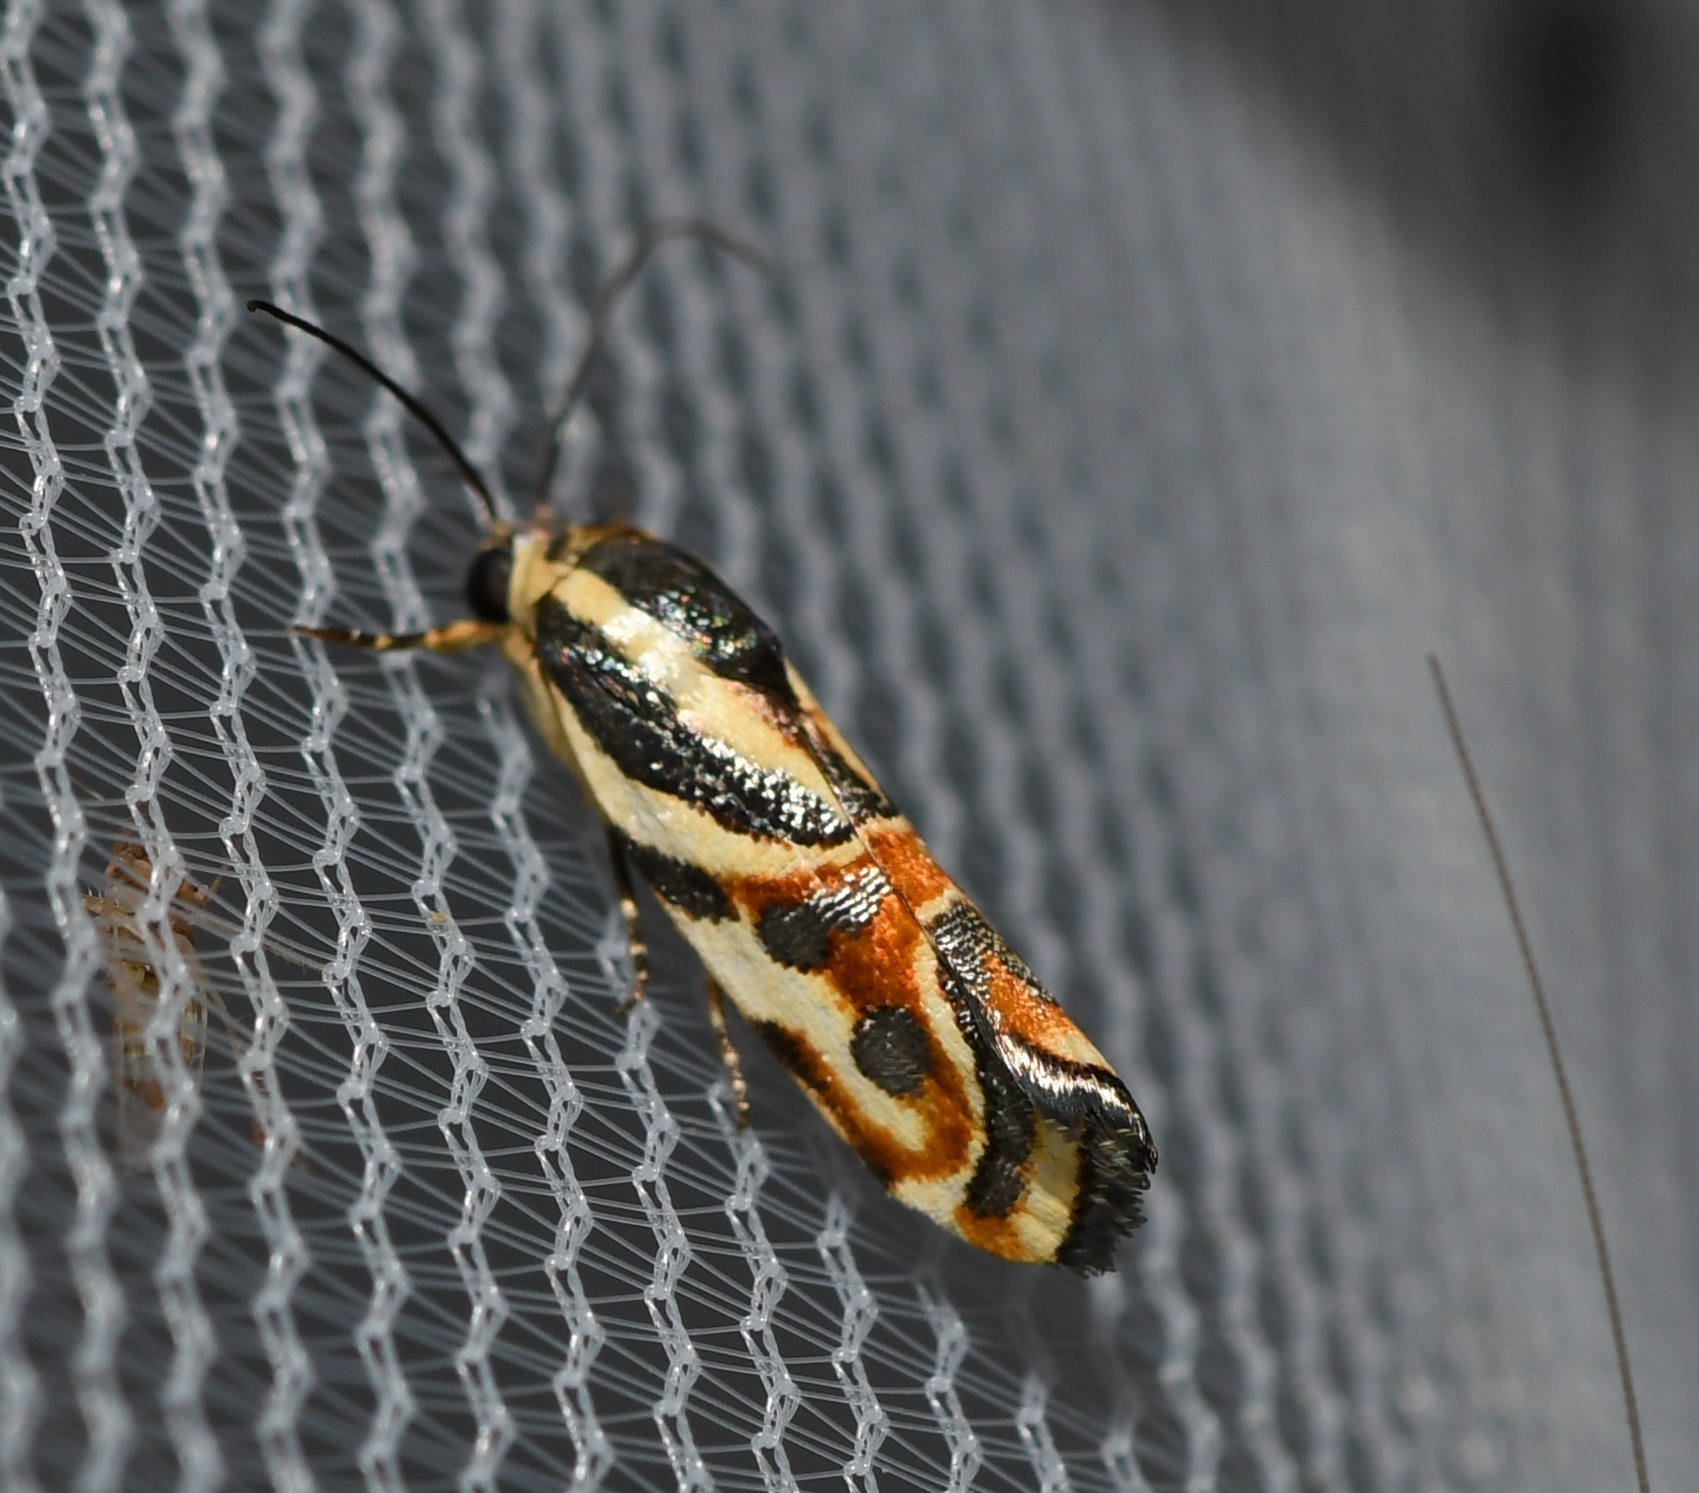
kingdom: Animalia
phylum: Arthropoda
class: Insecta
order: Lepidoptera
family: Noctuidae
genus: Spragueia
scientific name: Spragueia magnifica
